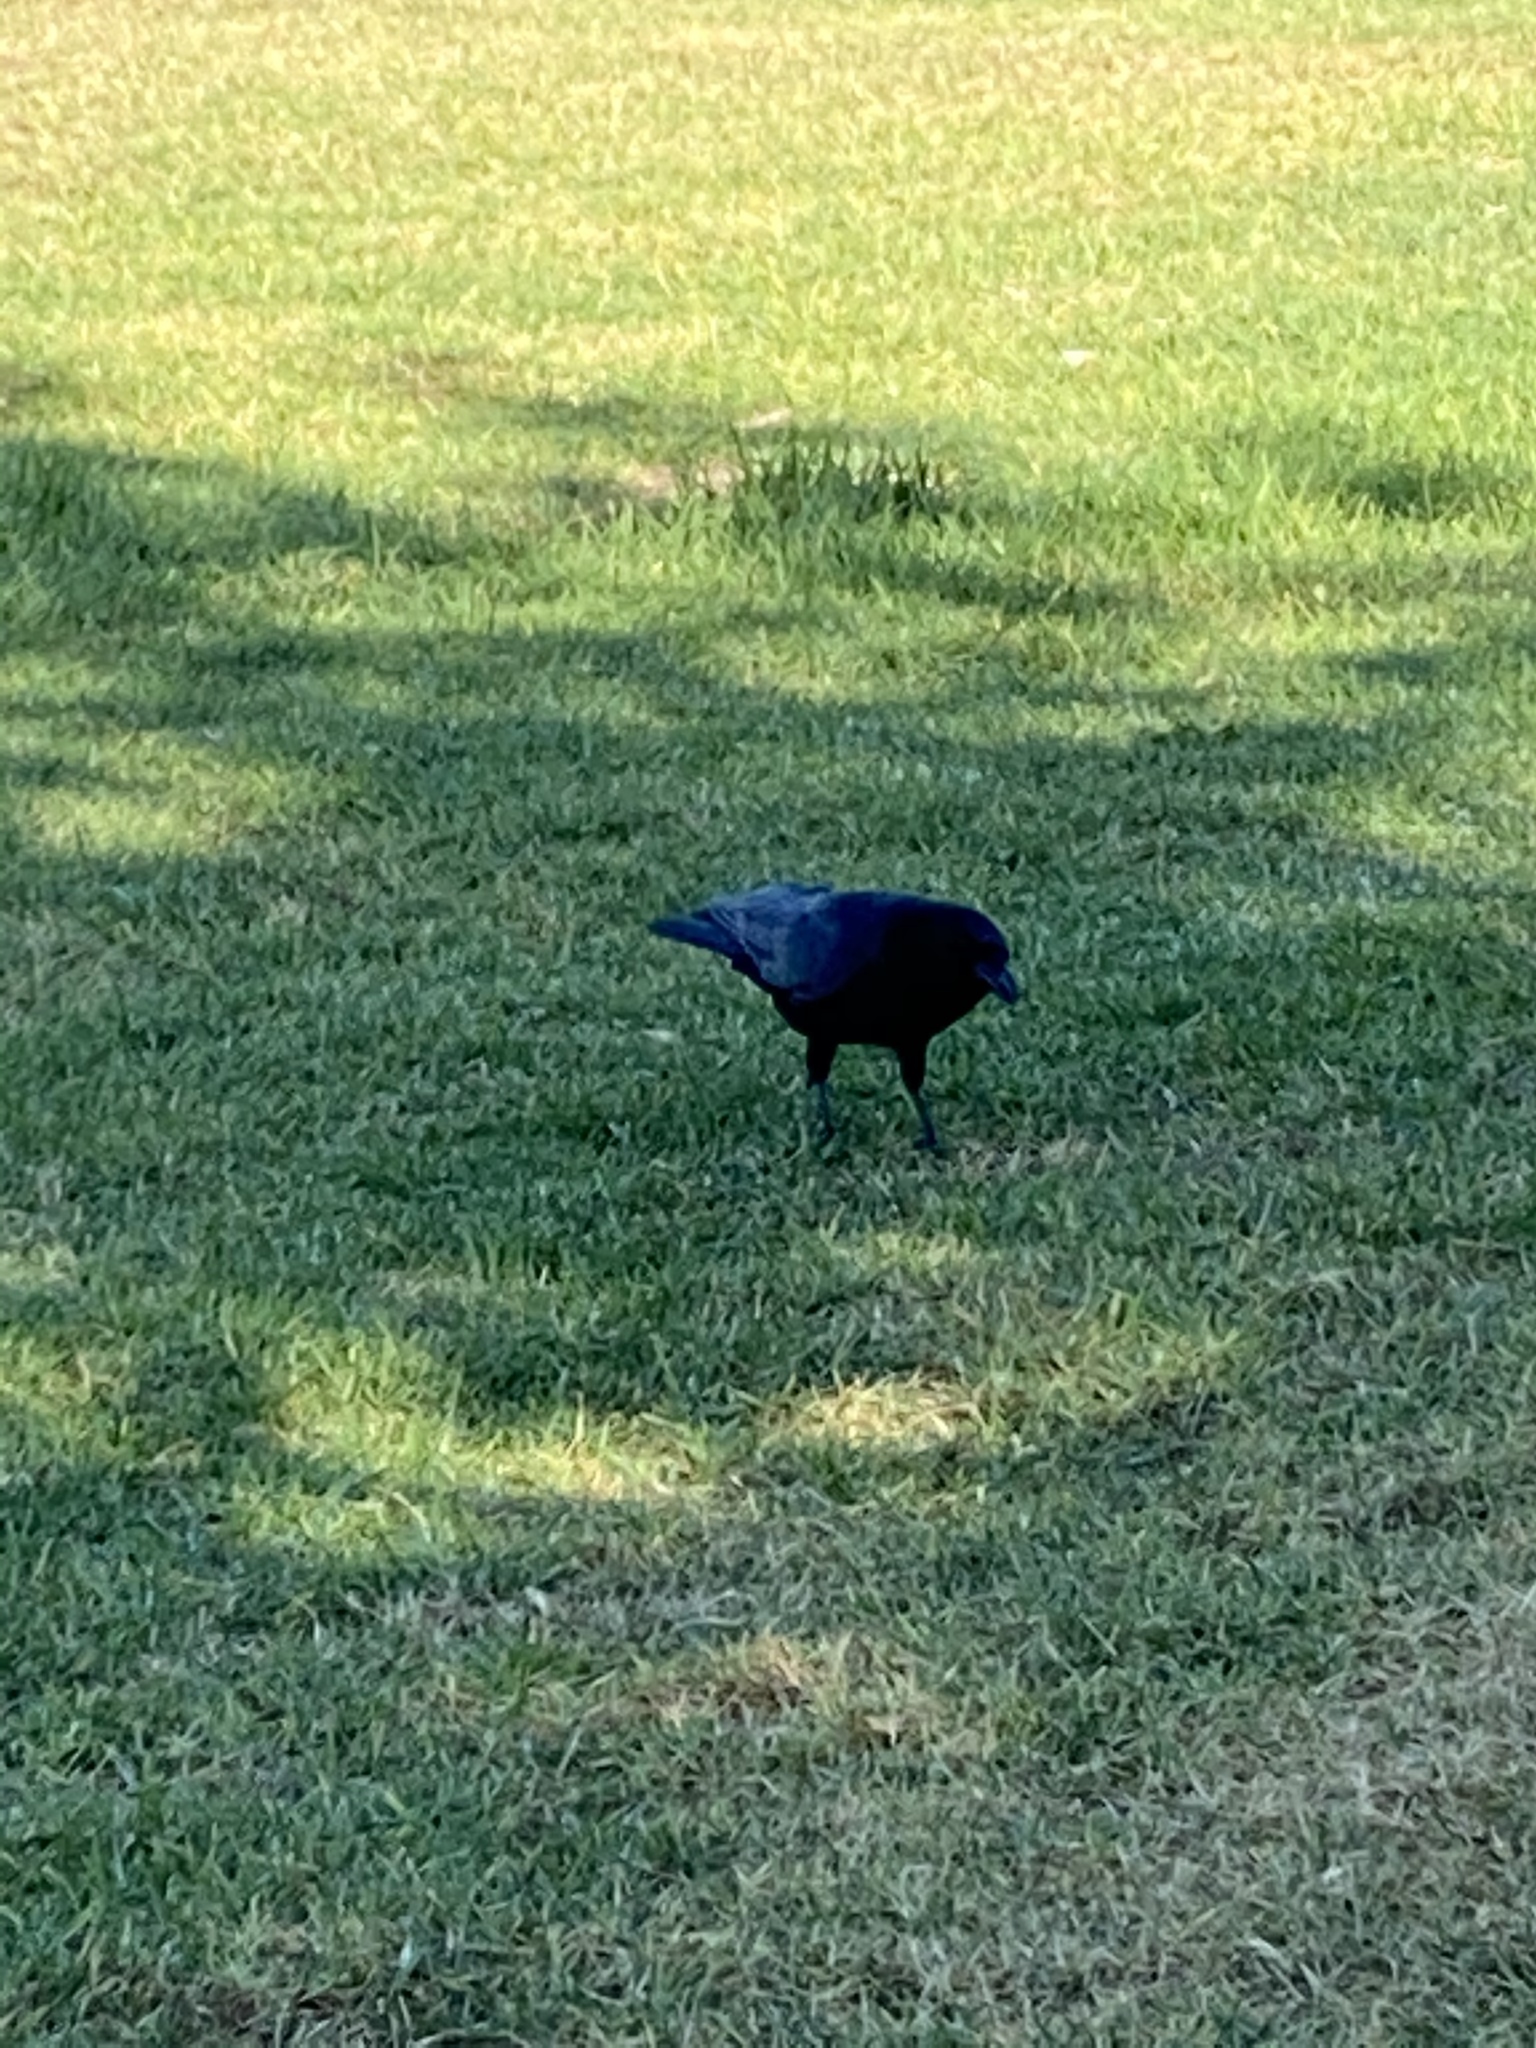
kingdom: Animalia
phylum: Chordata
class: Aves
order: Passeriformes
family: Corvidae
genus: Corvus
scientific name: Corvus brachyrhynchos
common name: American crow
